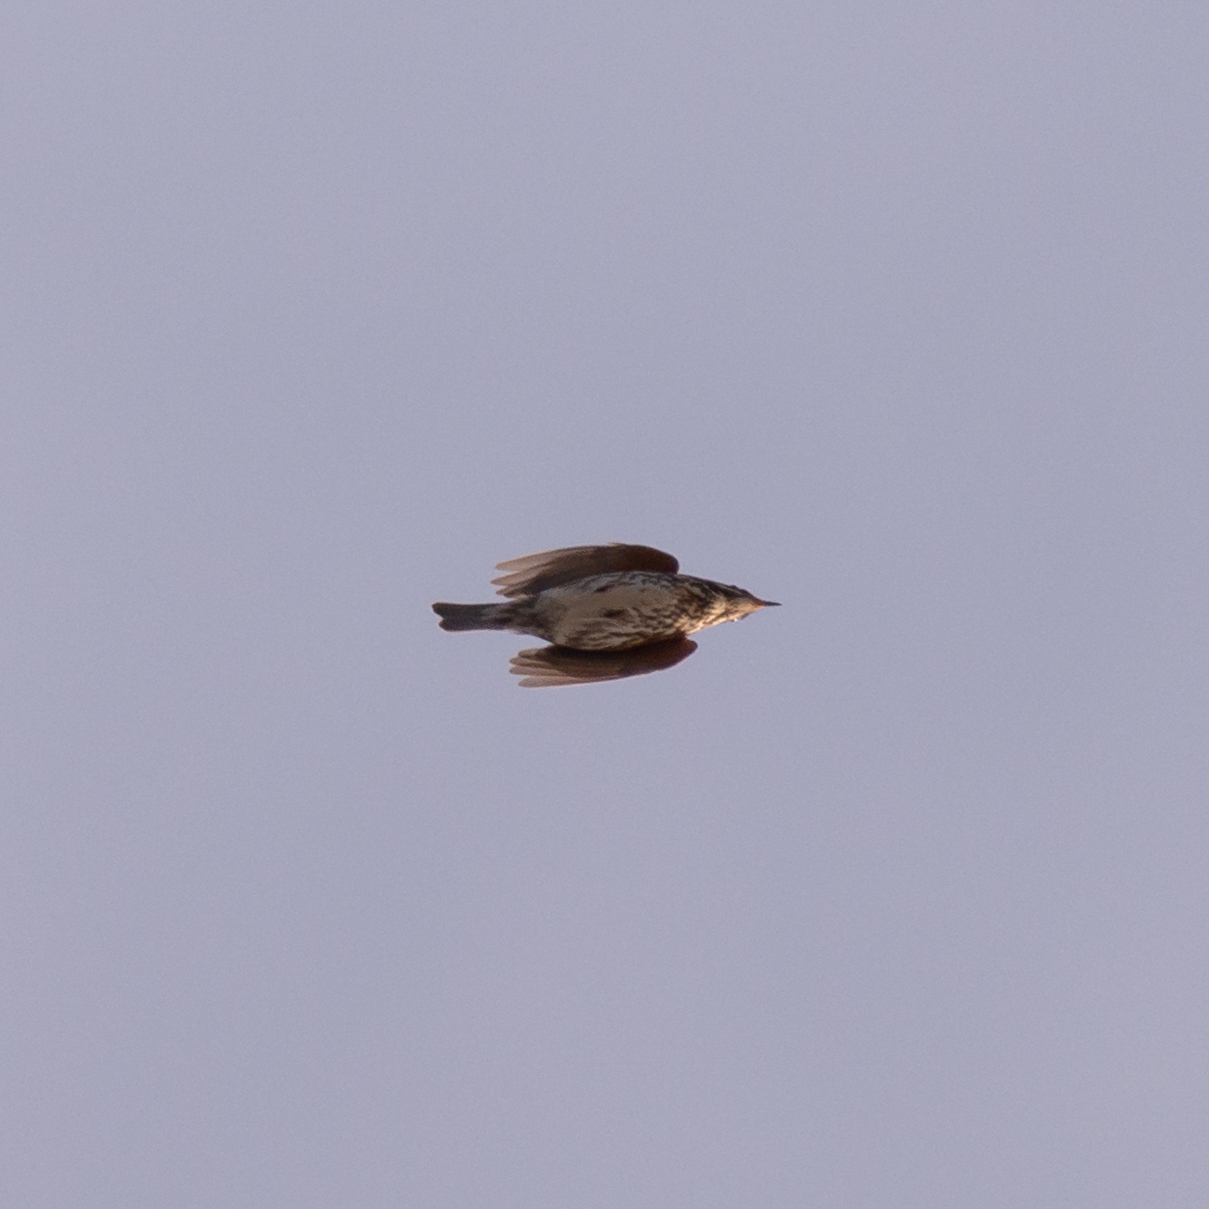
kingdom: Animalia
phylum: Chordata
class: Aves
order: Passeriformes
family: Turdidae
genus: Turdus
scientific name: Turdus iliacus
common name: Redwing
